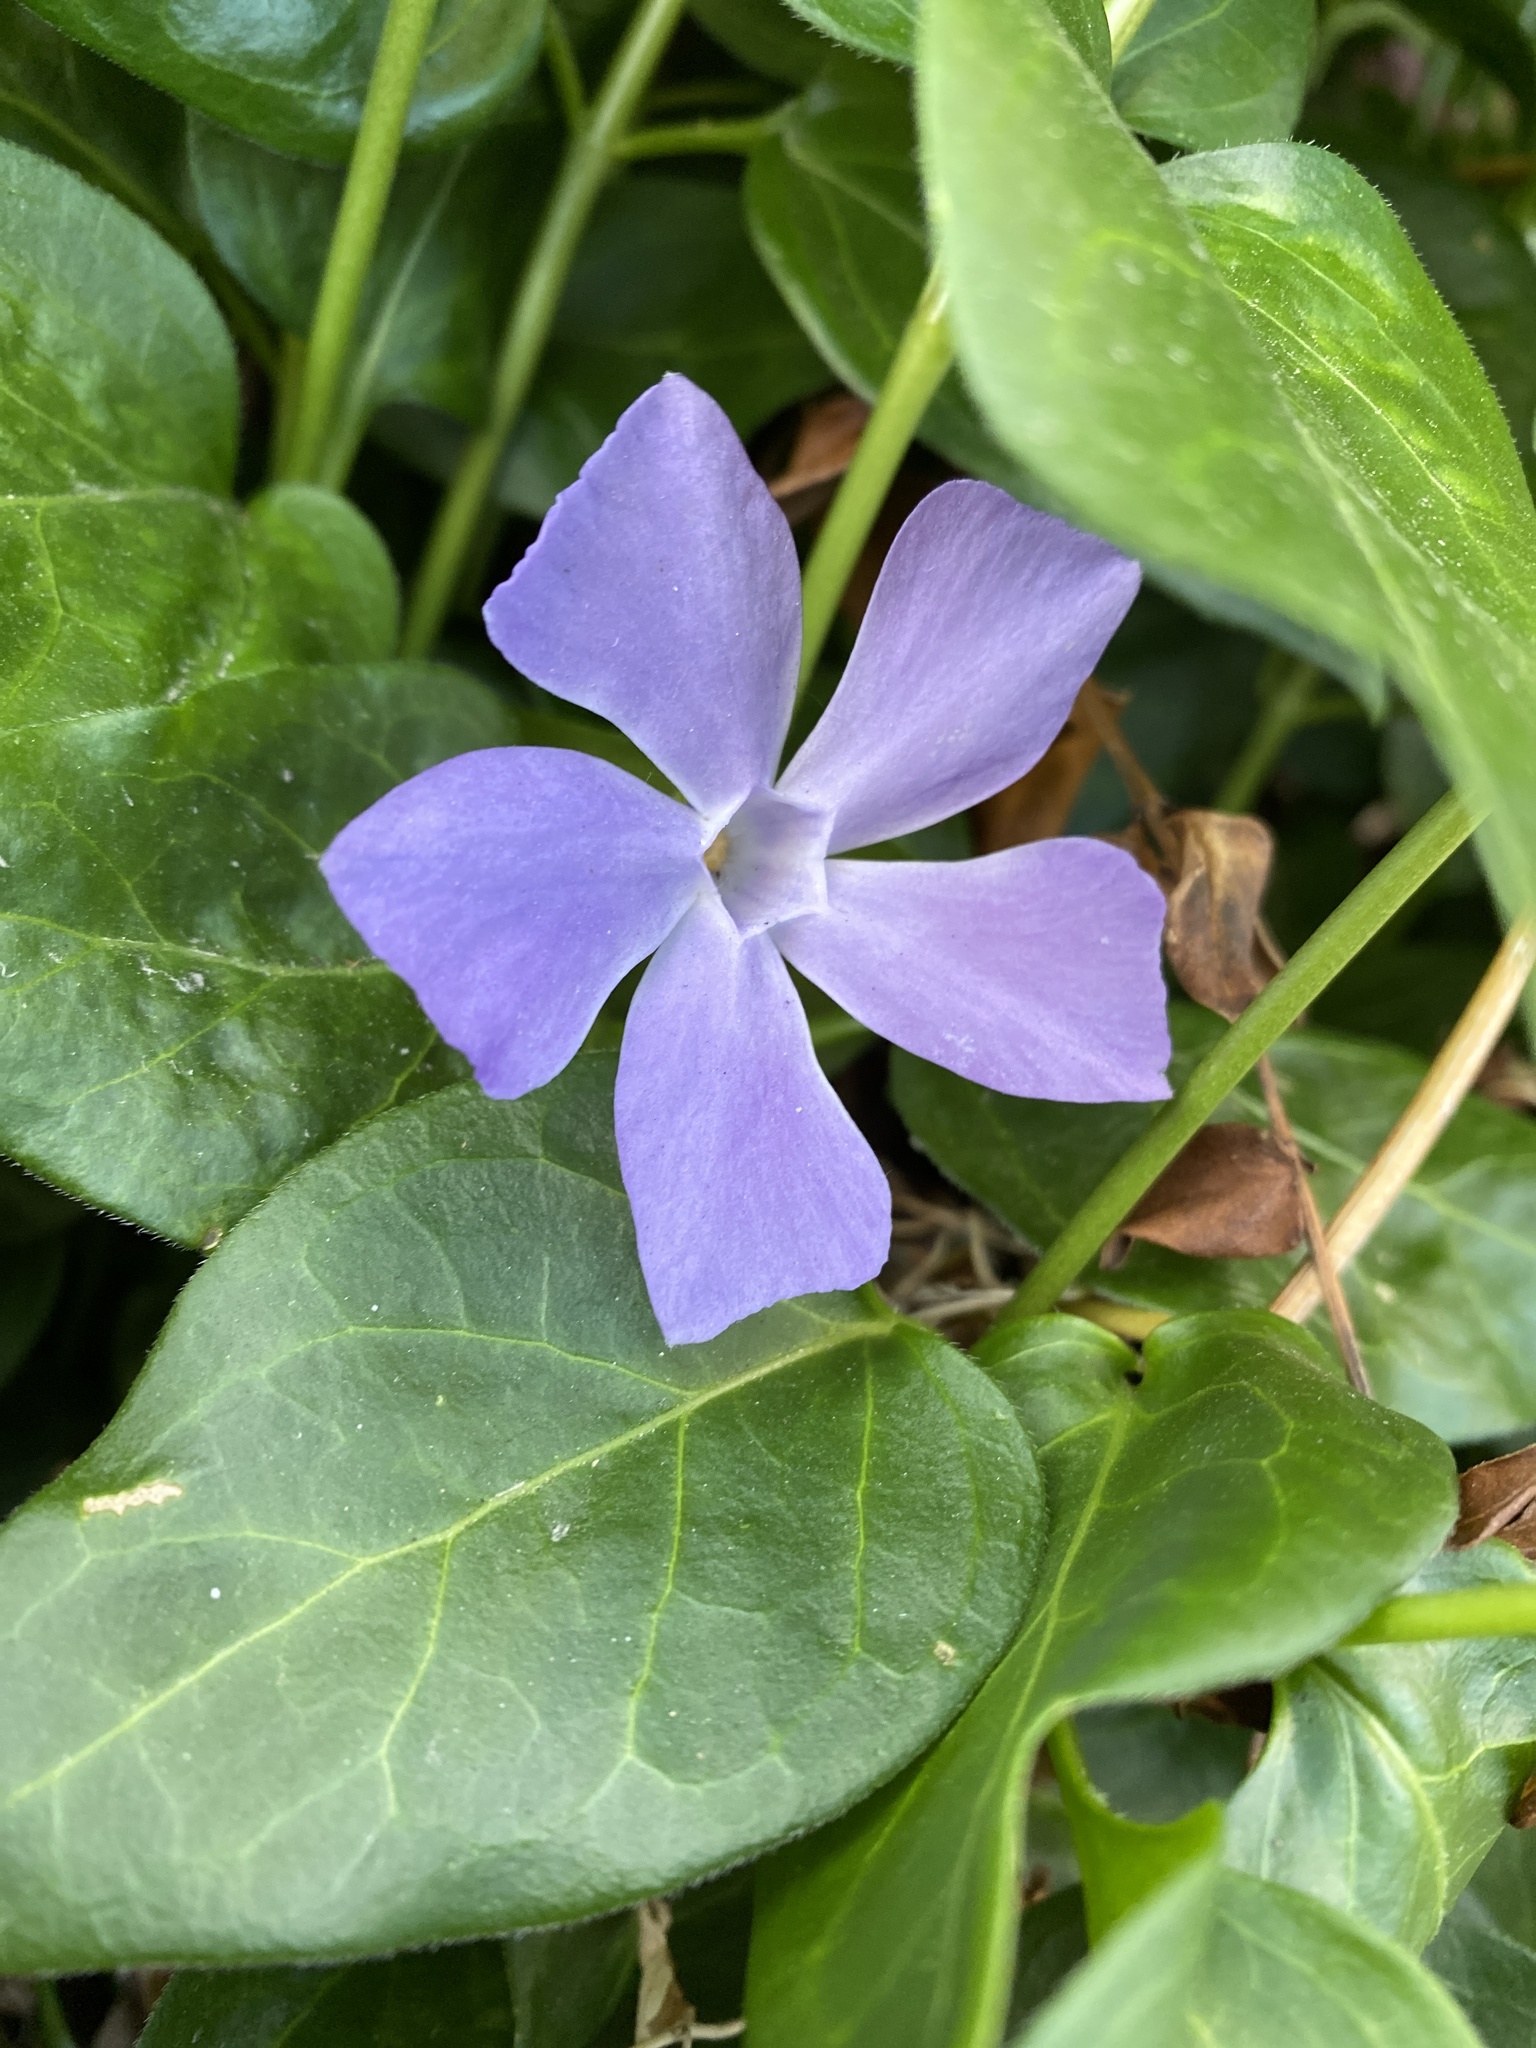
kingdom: Plantae
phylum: Tracheophyta
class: Magnoliopsida
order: Gentianales
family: Apocynaceae
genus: Vinca
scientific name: Vinca major
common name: Greater periwinkle
